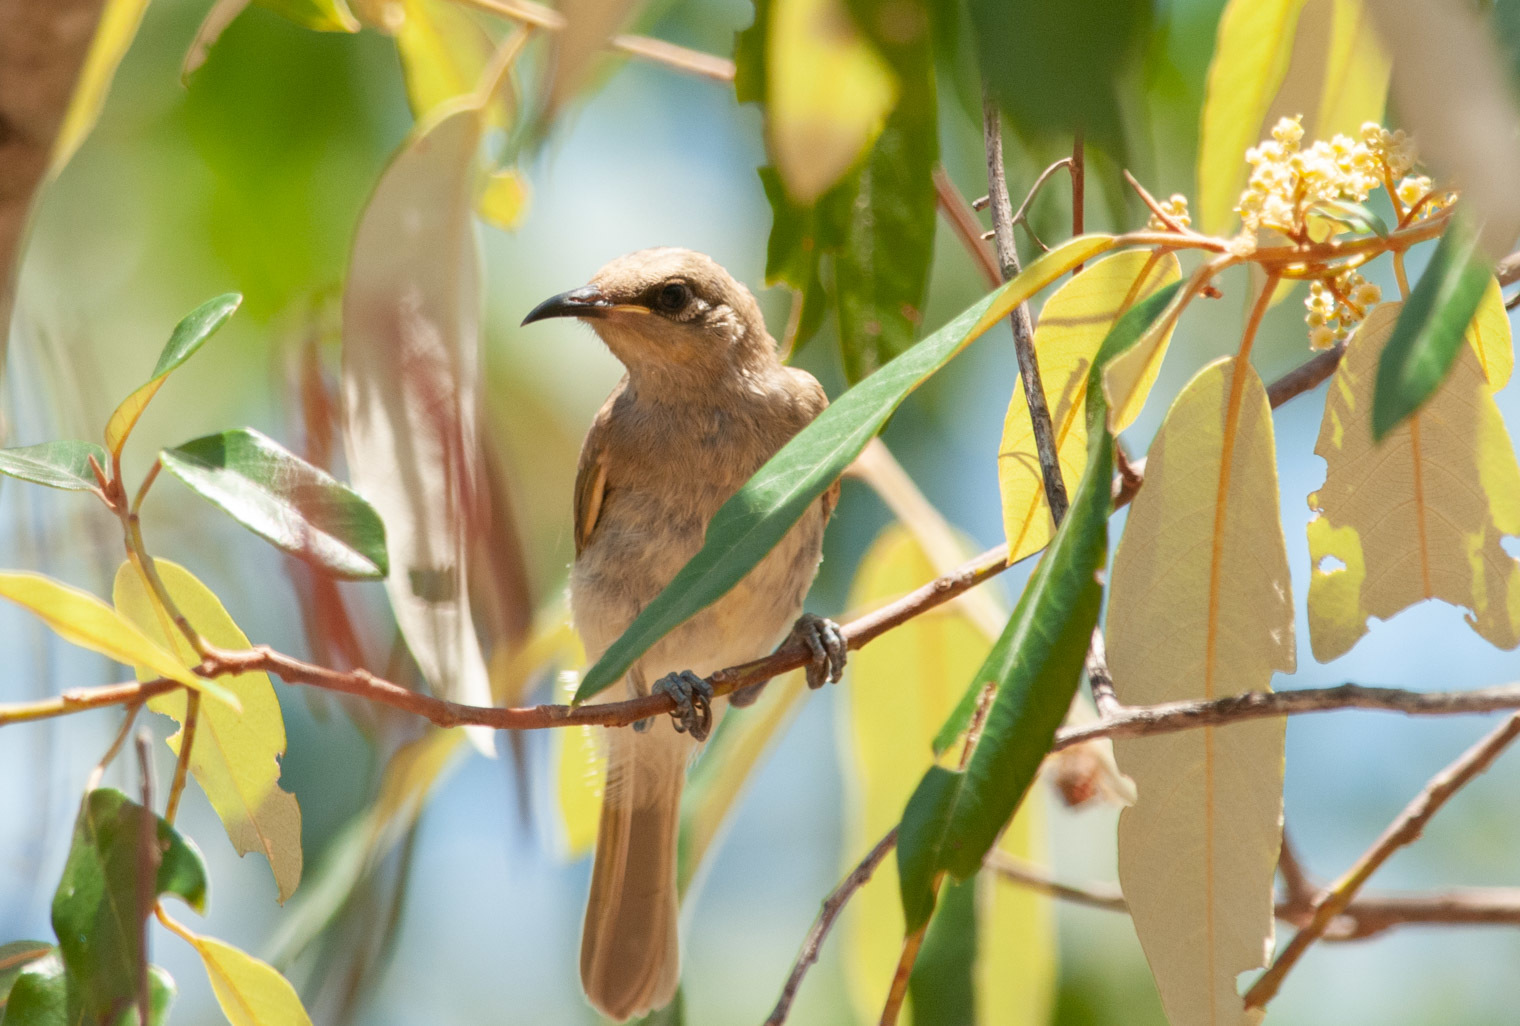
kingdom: Animalia
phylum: Chordata
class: Aves
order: Passeriformes
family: Meliphagidae
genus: Lichmera
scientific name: Lichmera indistincta
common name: Brown honeyeater
